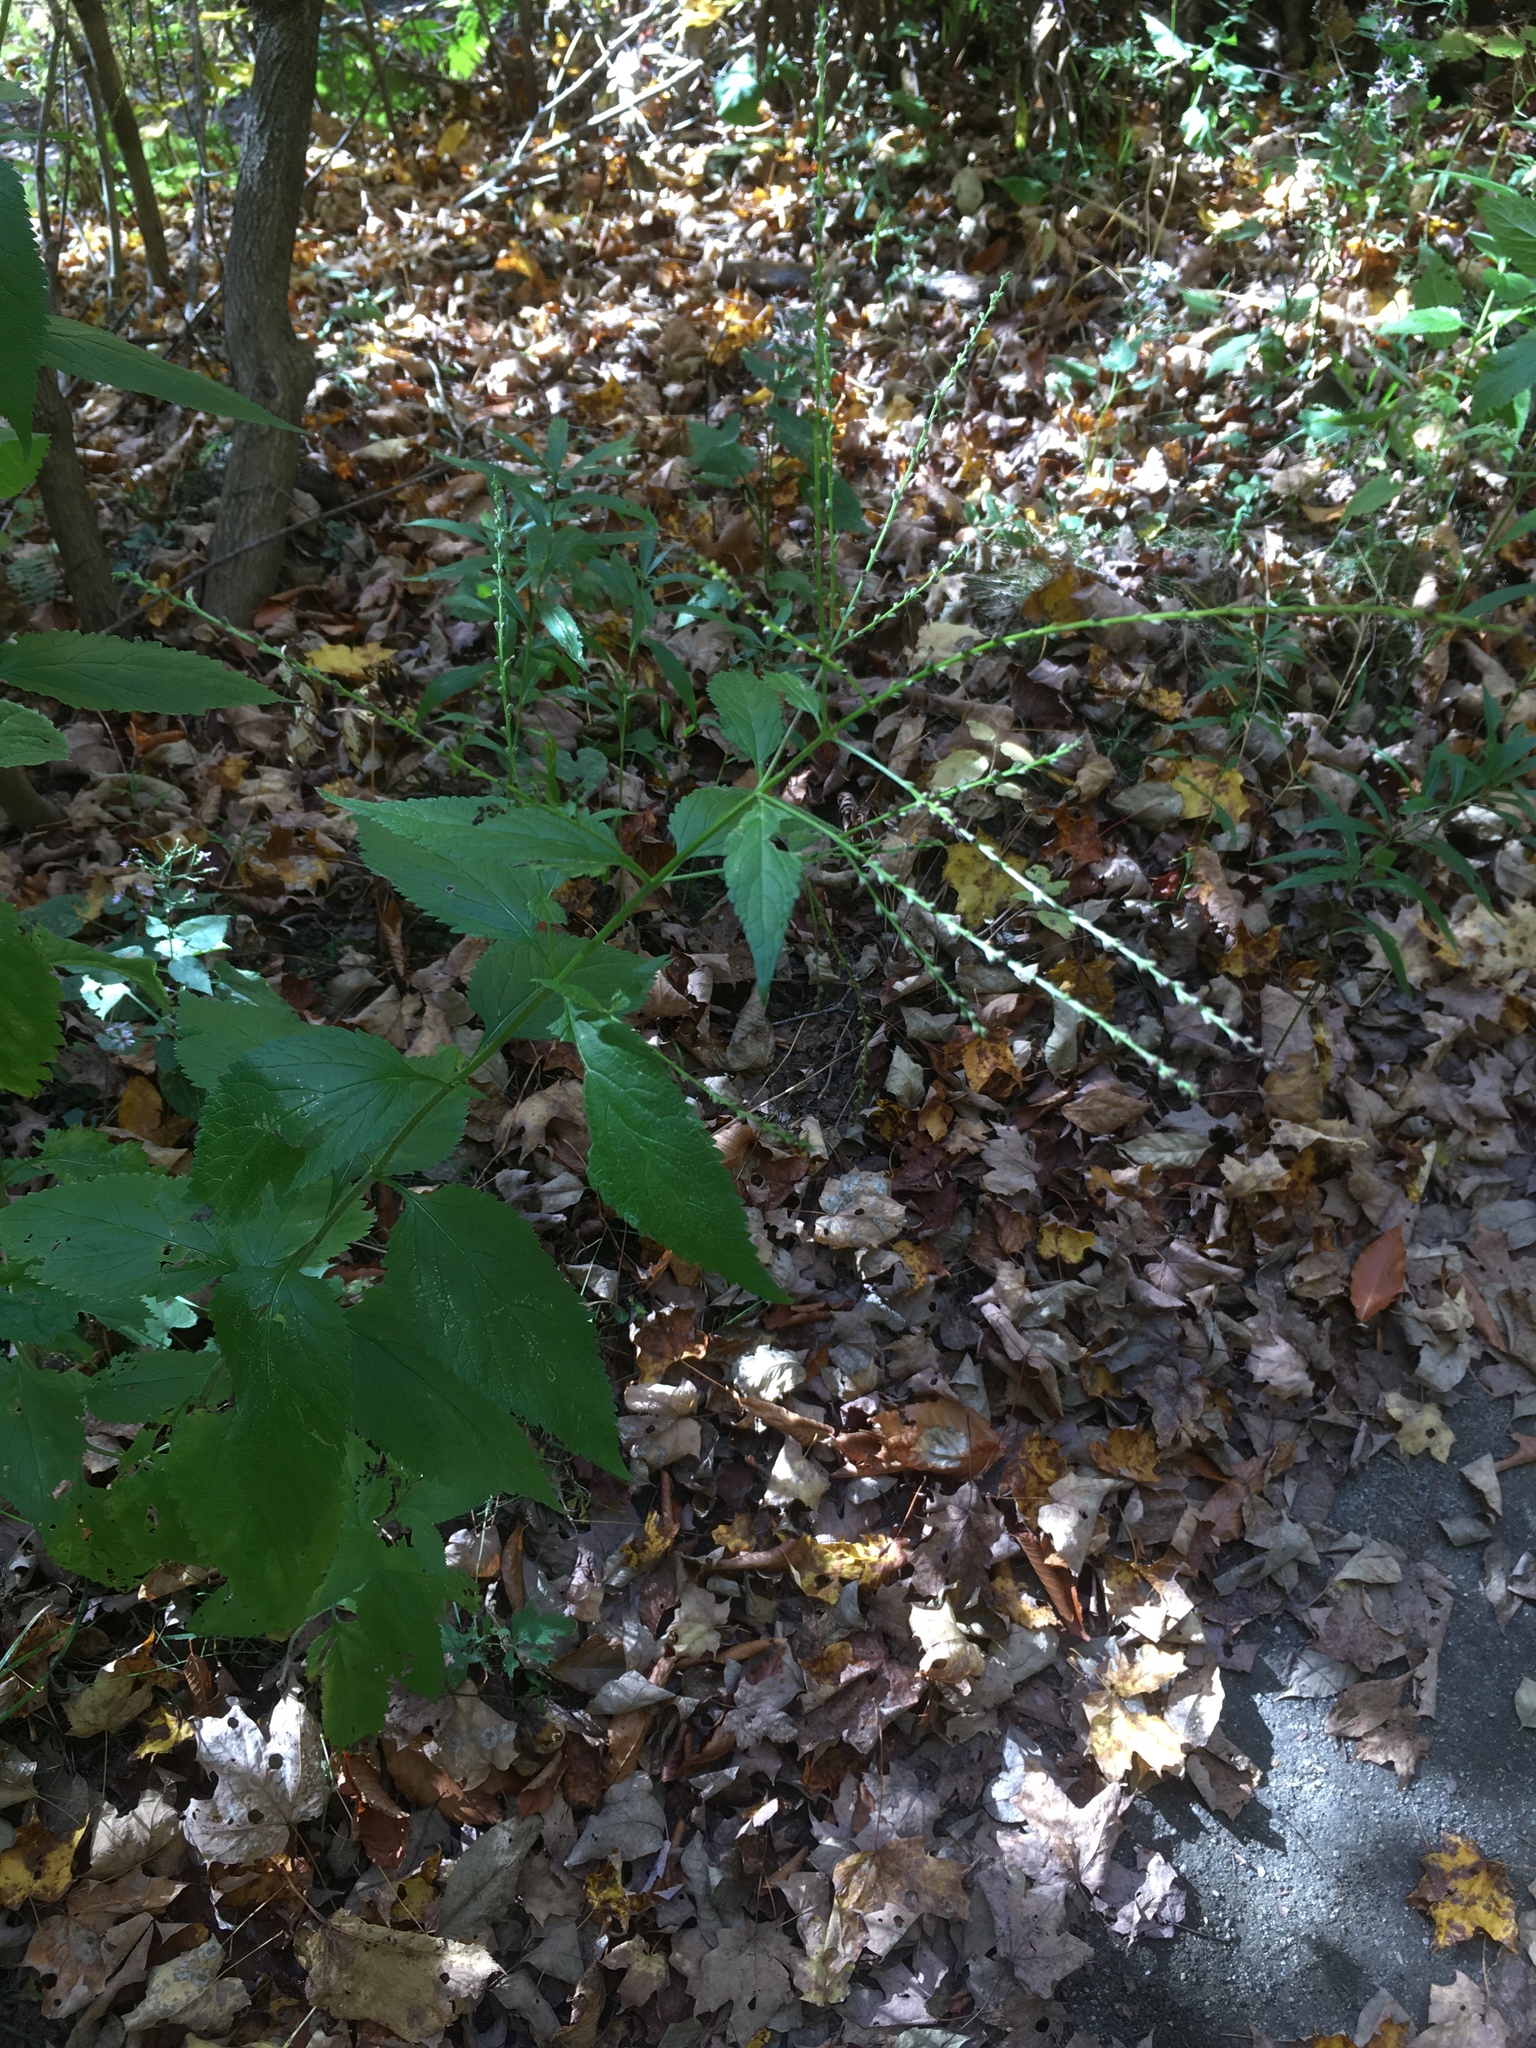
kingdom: Plantae
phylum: Tracheophyta
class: Magnoliopsida
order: Lamiales
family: Verbenaceae
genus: Verbena
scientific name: Verbena urticifolia
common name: Nettle-leaved vervain
